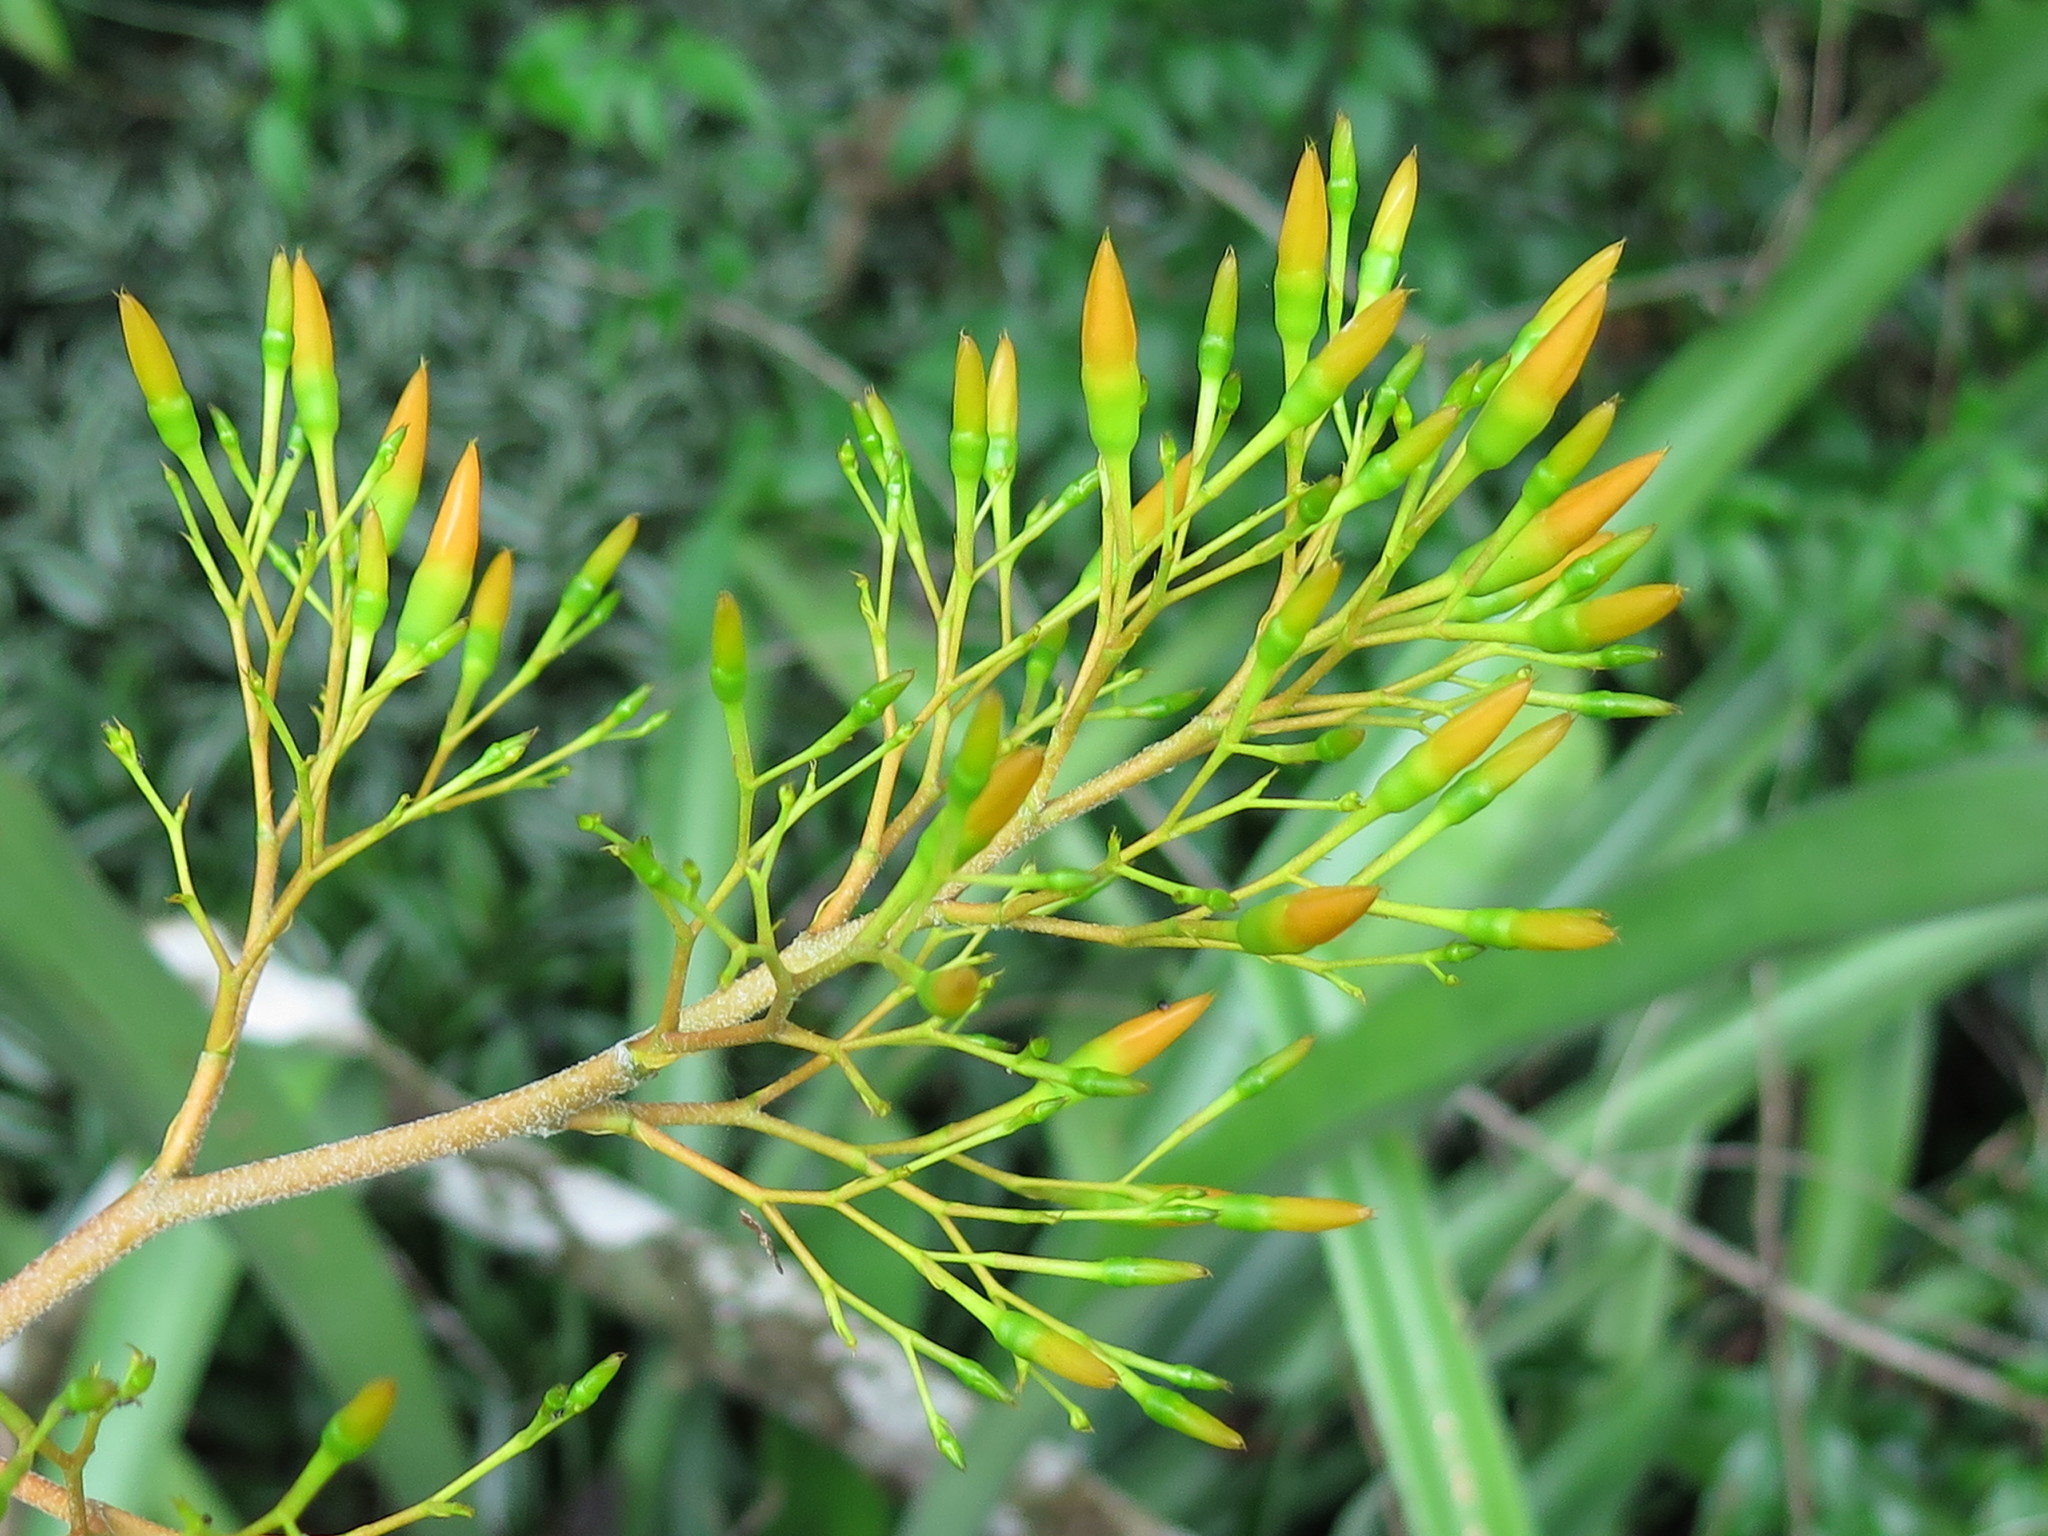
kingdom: Plantae
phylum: Tracheophyta
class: Liliopsida
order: Poales
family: Bromeliaceae
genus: Aechmea
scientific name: Aechmea leptantha
